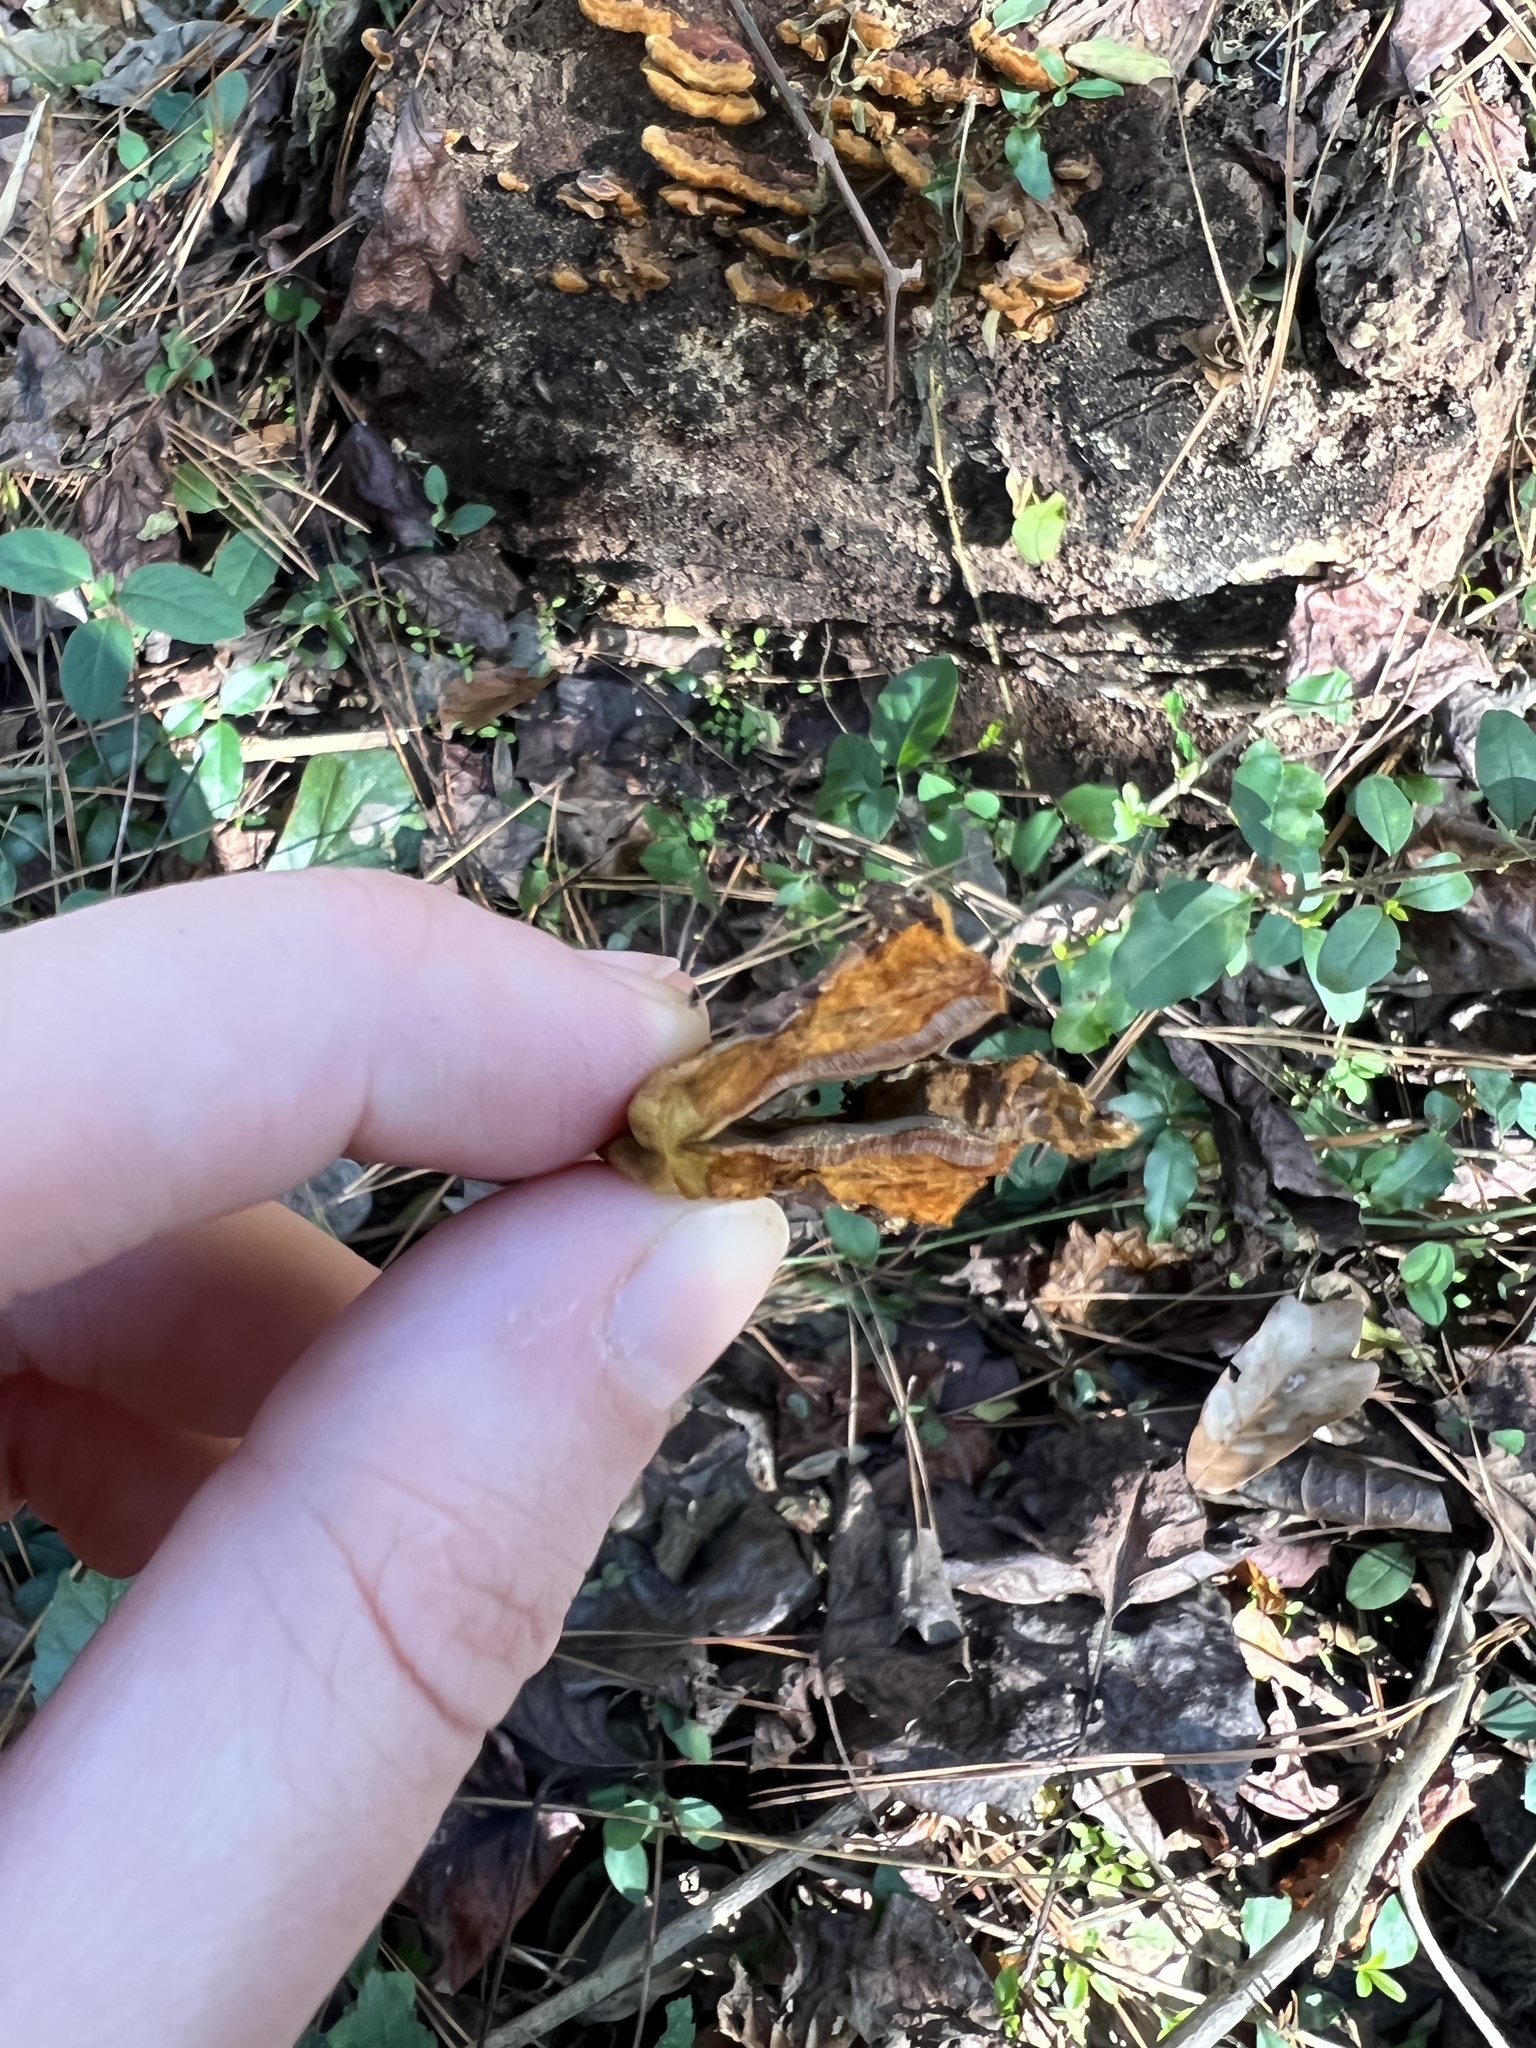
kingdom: Fungi
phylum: Basidiomycota
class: Agaricomycetes
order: Hymenochaetales
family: Hymenochaetaceae
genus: Phellinus
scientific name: Phellinus gilvus
